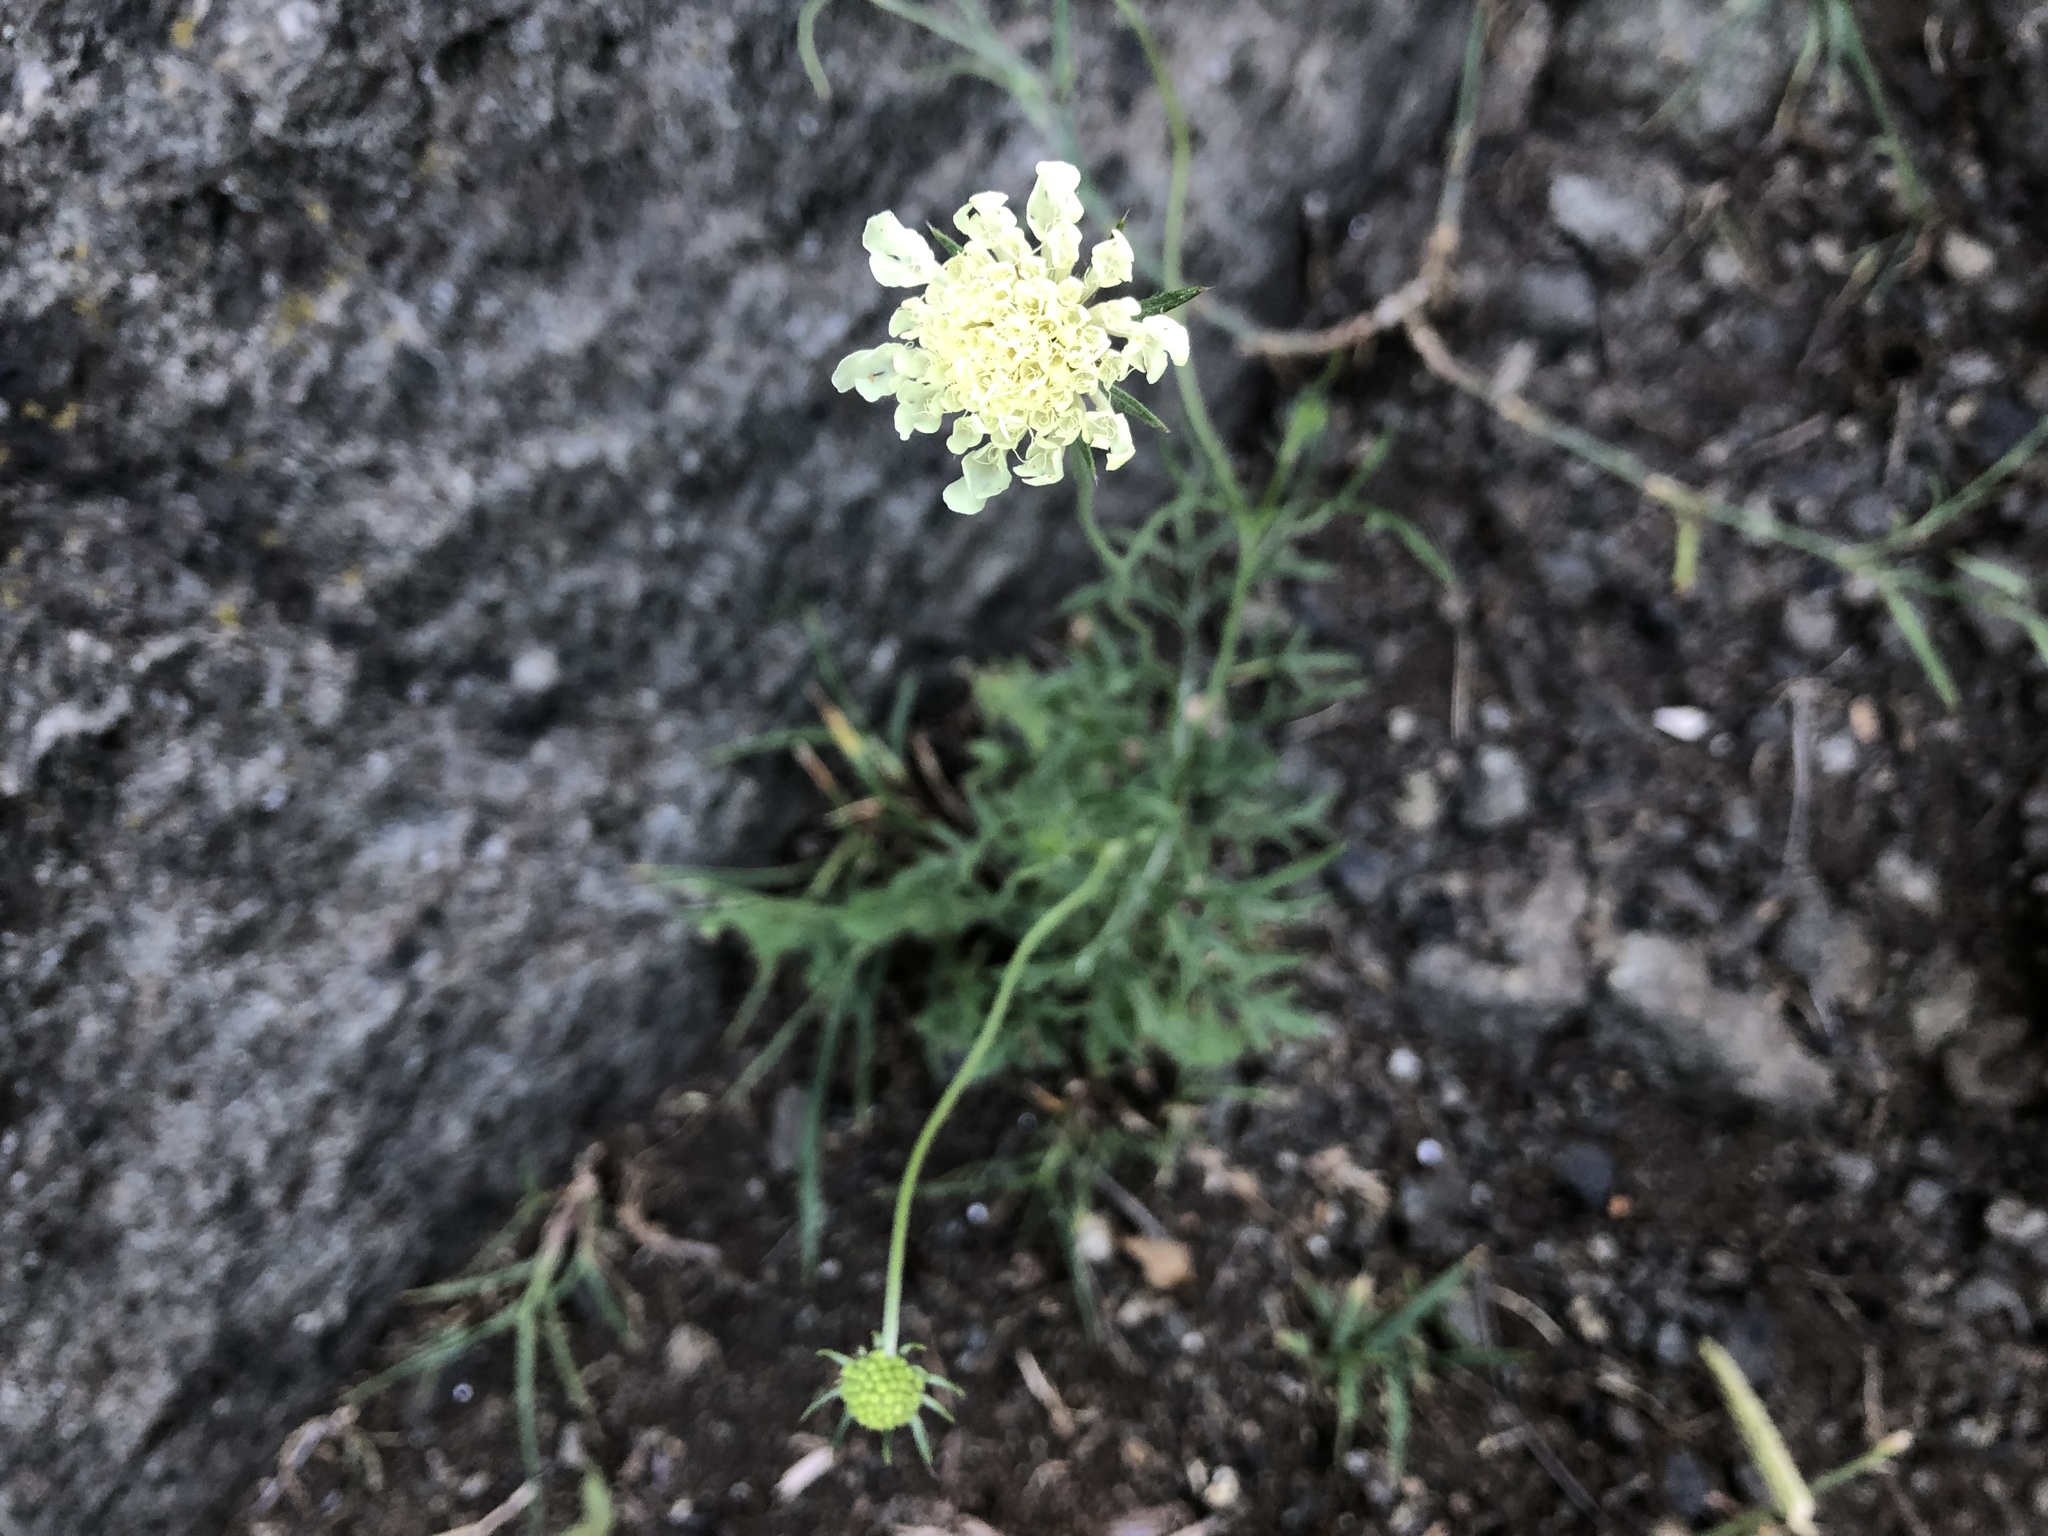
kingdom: Plantae
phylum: Tracheophyta
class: Magnoliopsida
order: Dipsacales
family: Caprifoliaceae
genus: Scabiosa
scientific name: Scabiosa ochroleuca
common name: Cream pincushions
